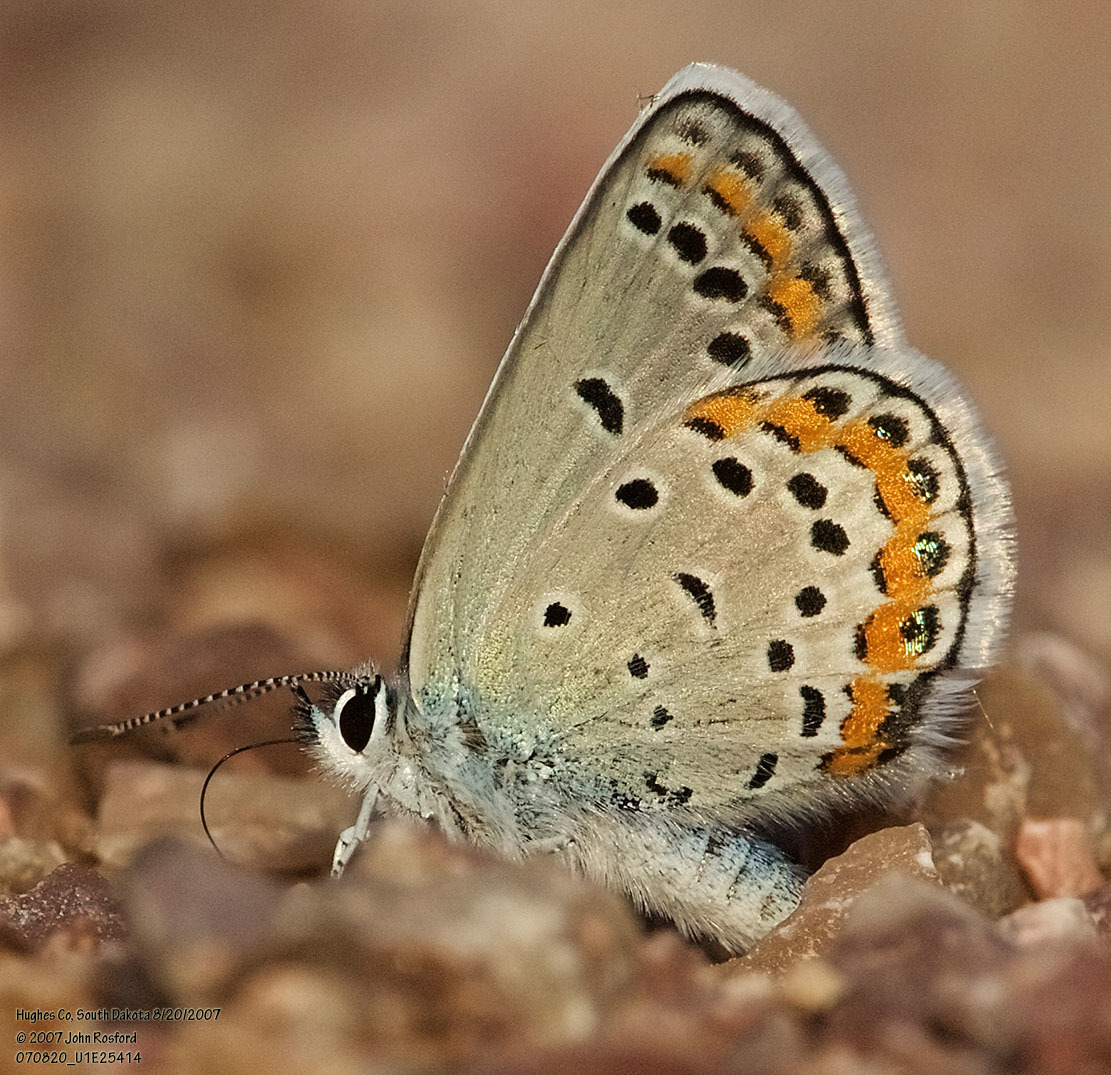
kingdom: Animalia
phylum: Arthropoda
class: Insecta
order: Lepidoptera
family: Lycaenidae
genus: Lycaeides
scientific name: Lycaeides melissa
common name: Melissa blue
